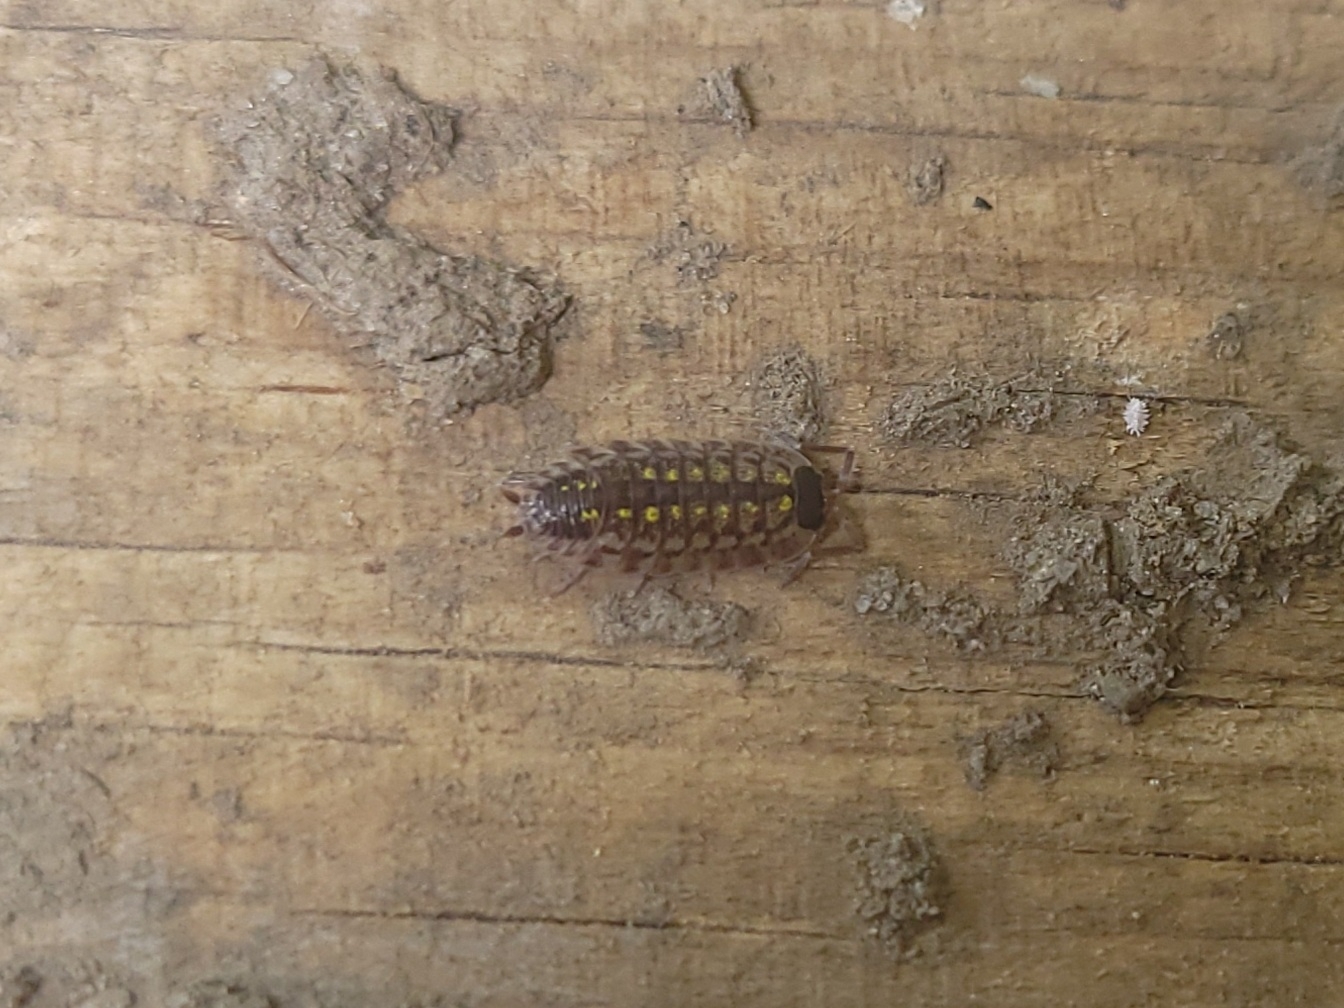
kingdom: Animalia
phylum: Arthropoda
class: Malacostraca
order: Isopoda
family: Porcellionidae
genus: Porcellio
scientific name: Porcellio spinicornis
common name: Painted woodlouse
